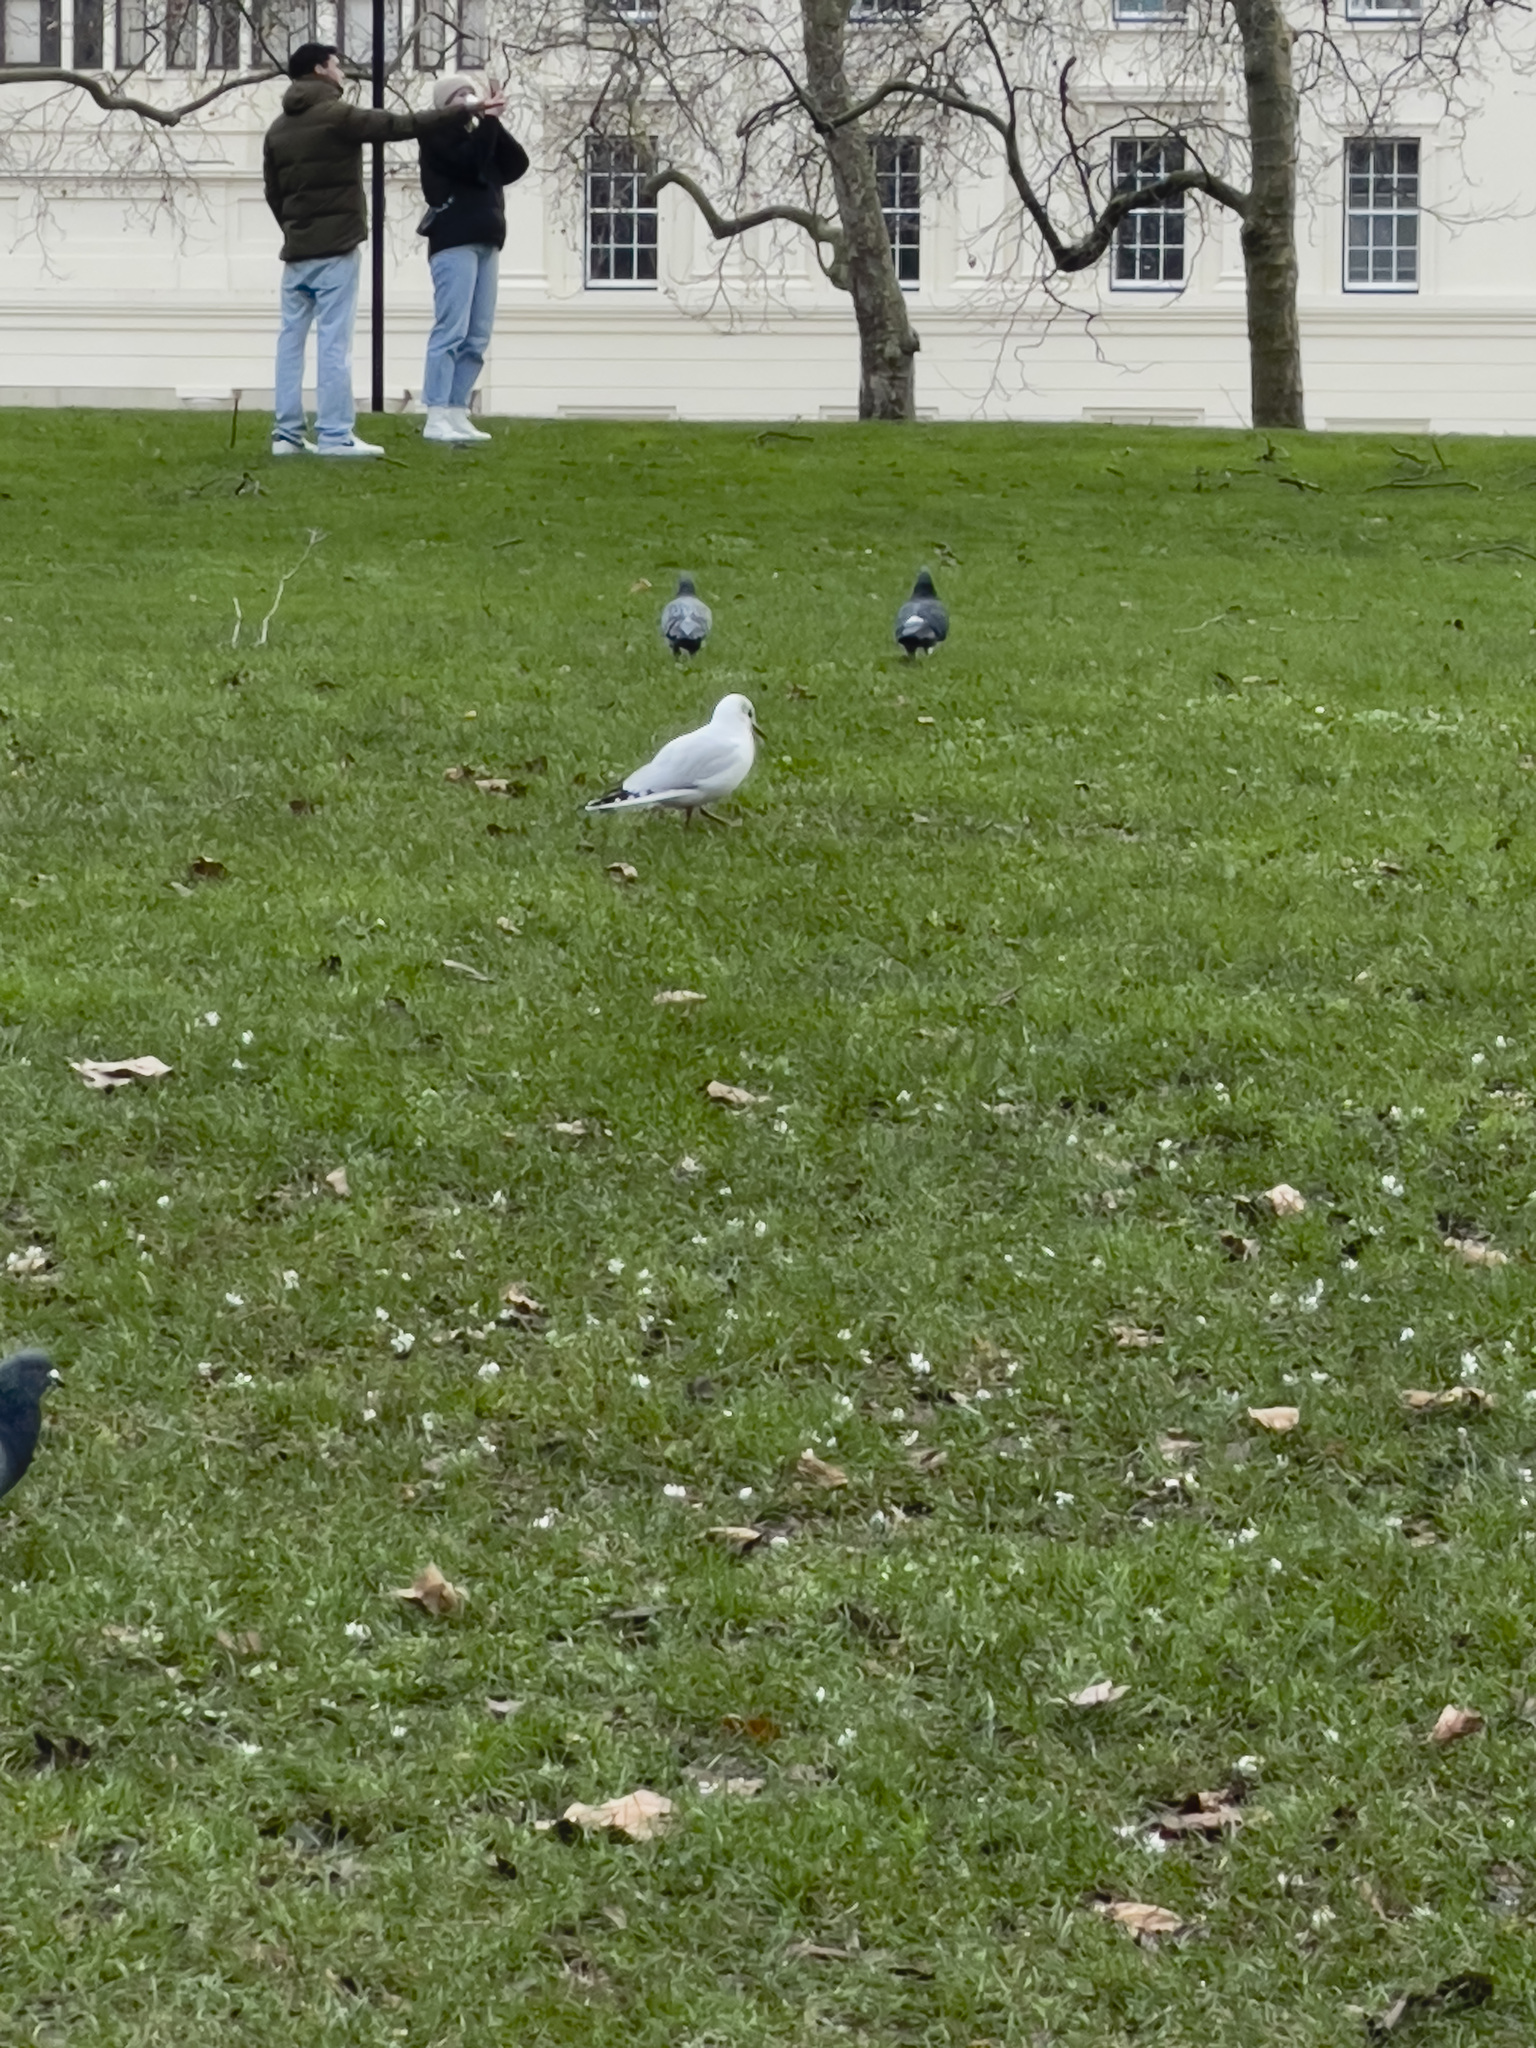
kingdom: Animalia
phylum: Chordata
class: Aves
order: Charadriiformes
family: Laridae
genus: Chroicocephalus
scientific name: Chroicocephalus ridibundus
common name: Black-headed gull
